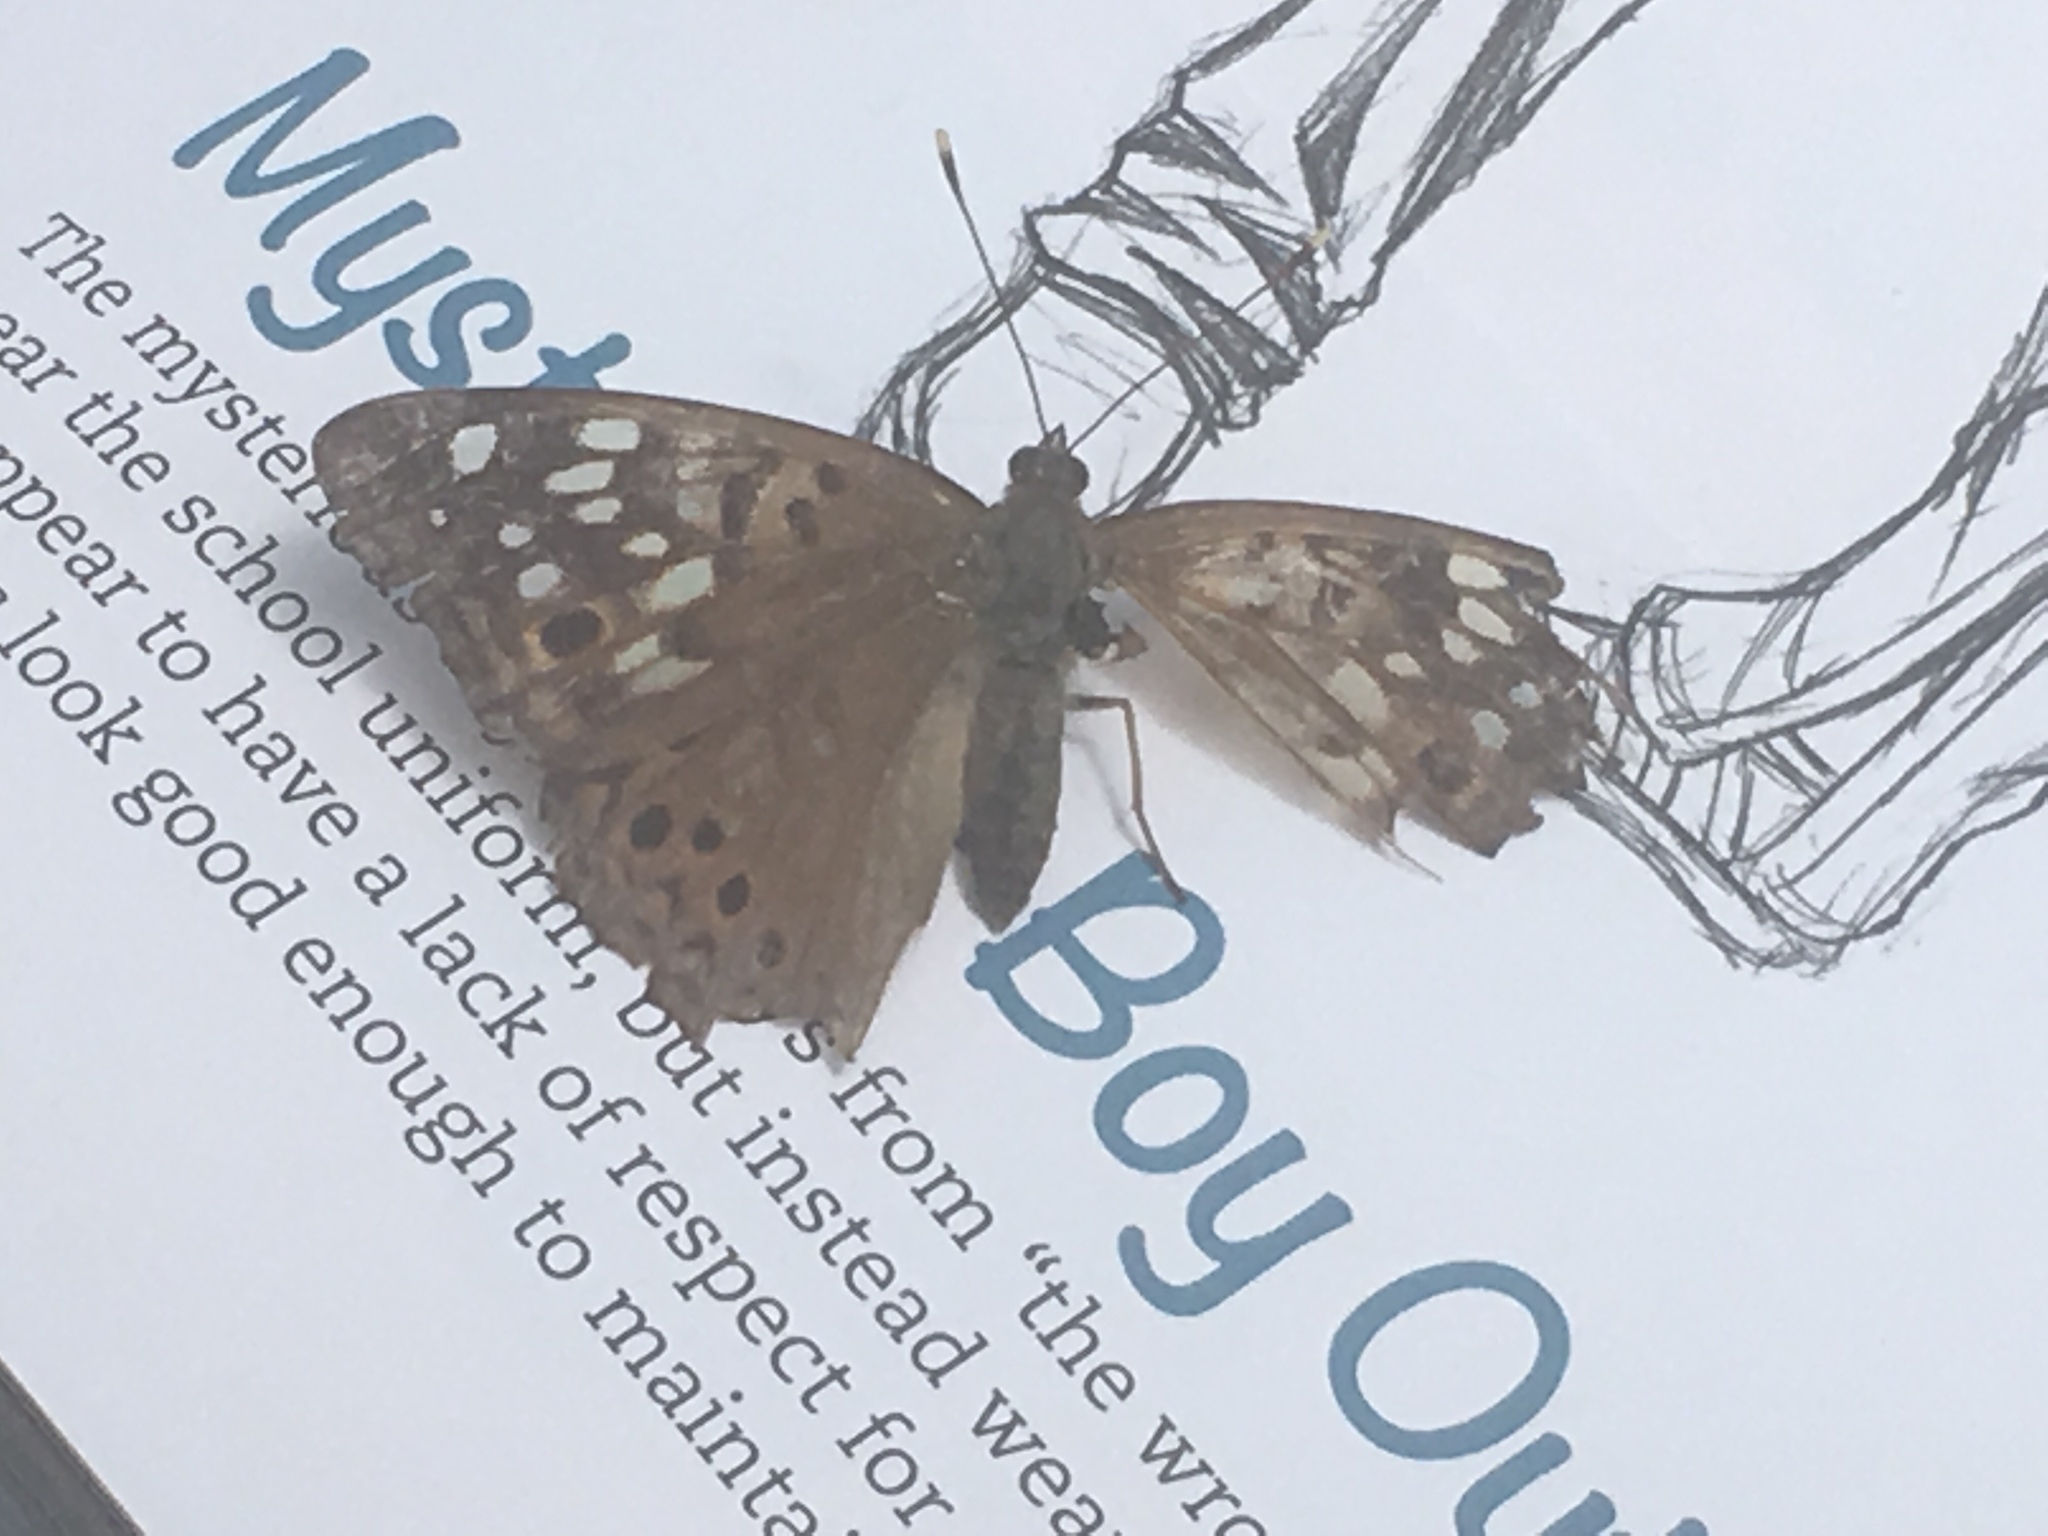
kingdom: Animalia
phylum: Arthropoda
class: Insecta
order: Lepidoptera
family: Nymphalidae
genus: Asterocampa
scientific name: Asterocampa celtis
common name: Hackberry emperor
